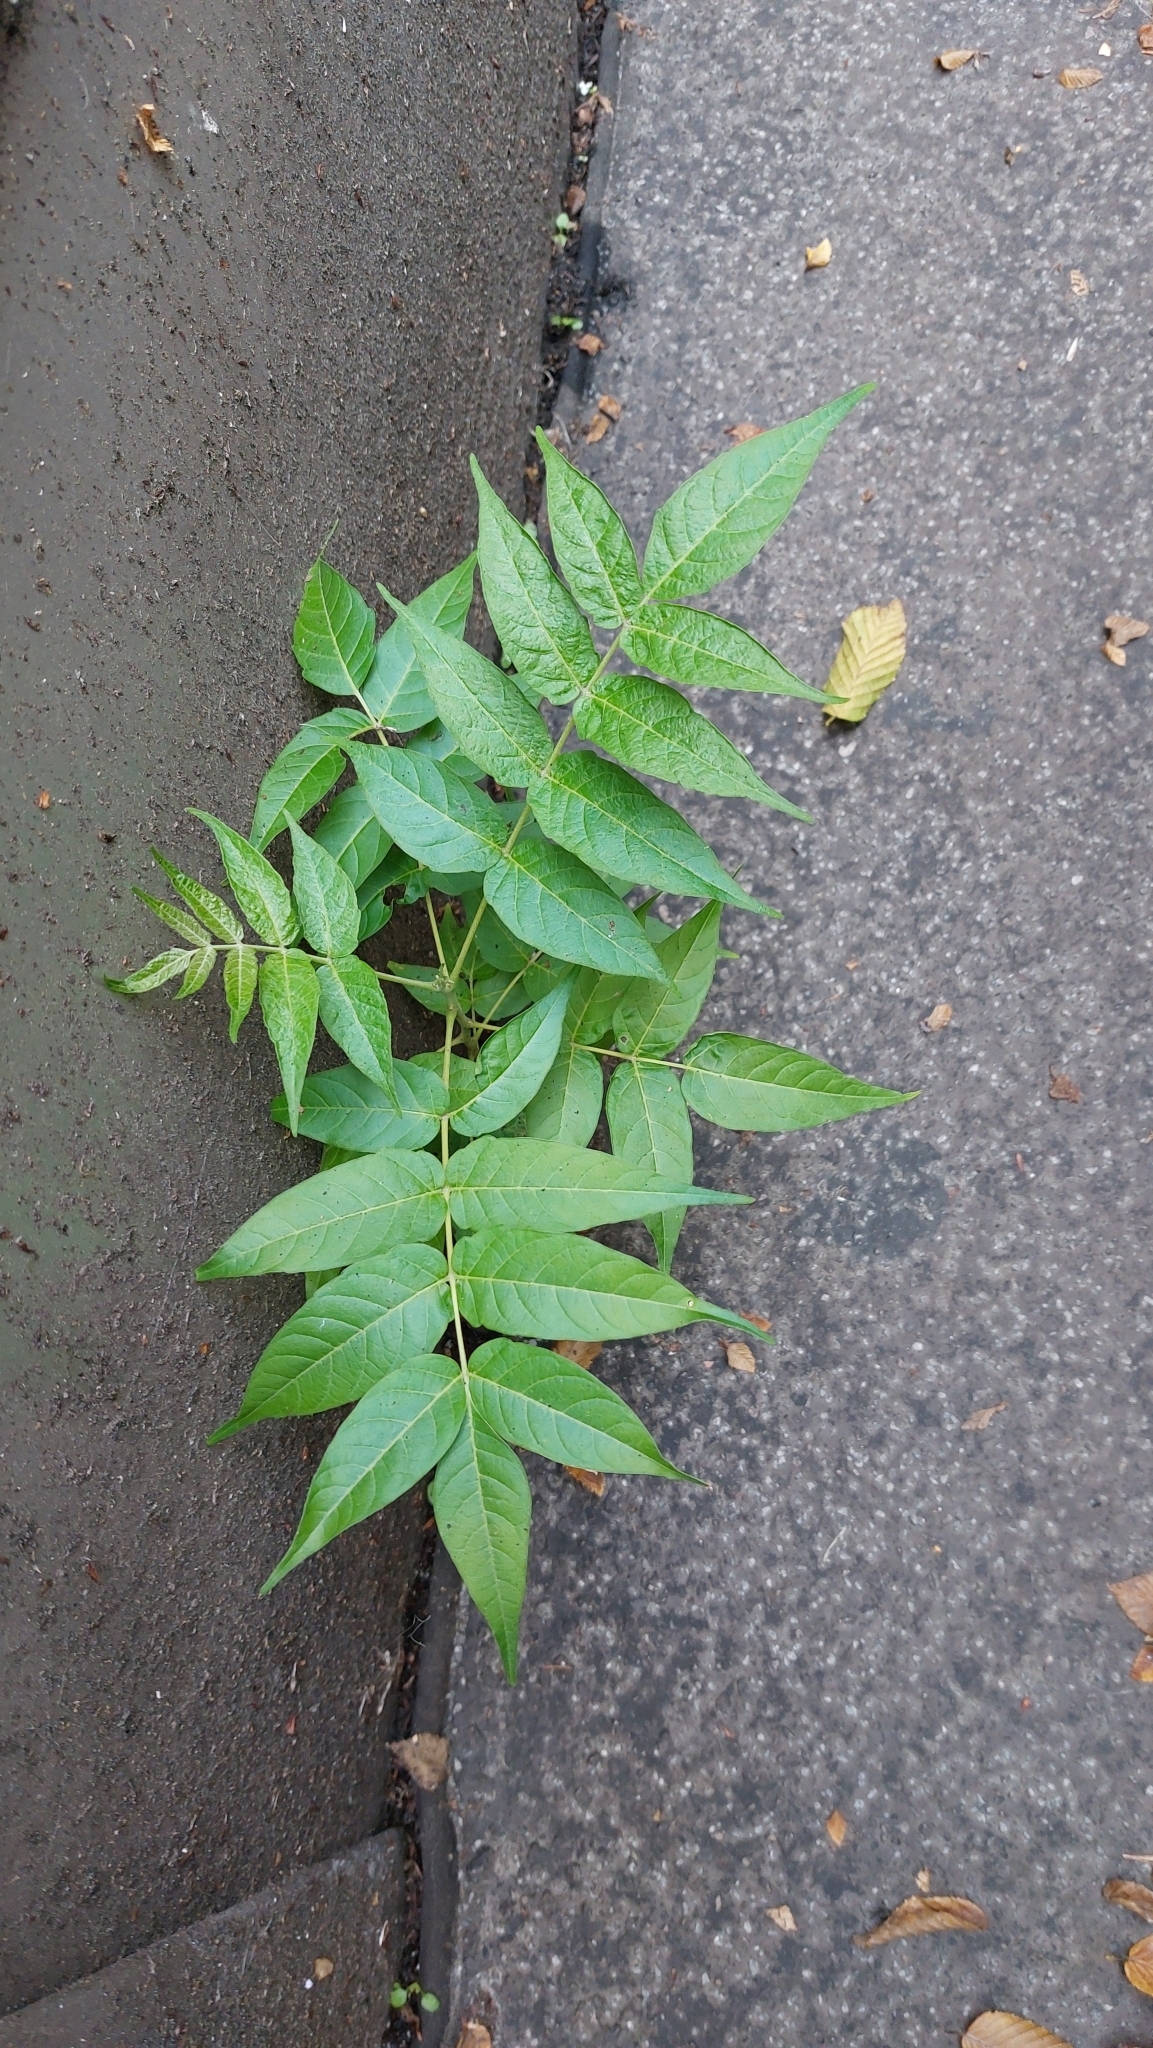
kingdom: Plantae
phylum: Tracheophyta
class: Magnoliopsida
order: Sapindales
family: Simaroubaceae
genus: Ailanthus
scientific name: Ailanthus altissima
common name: Tree-of-heaven
